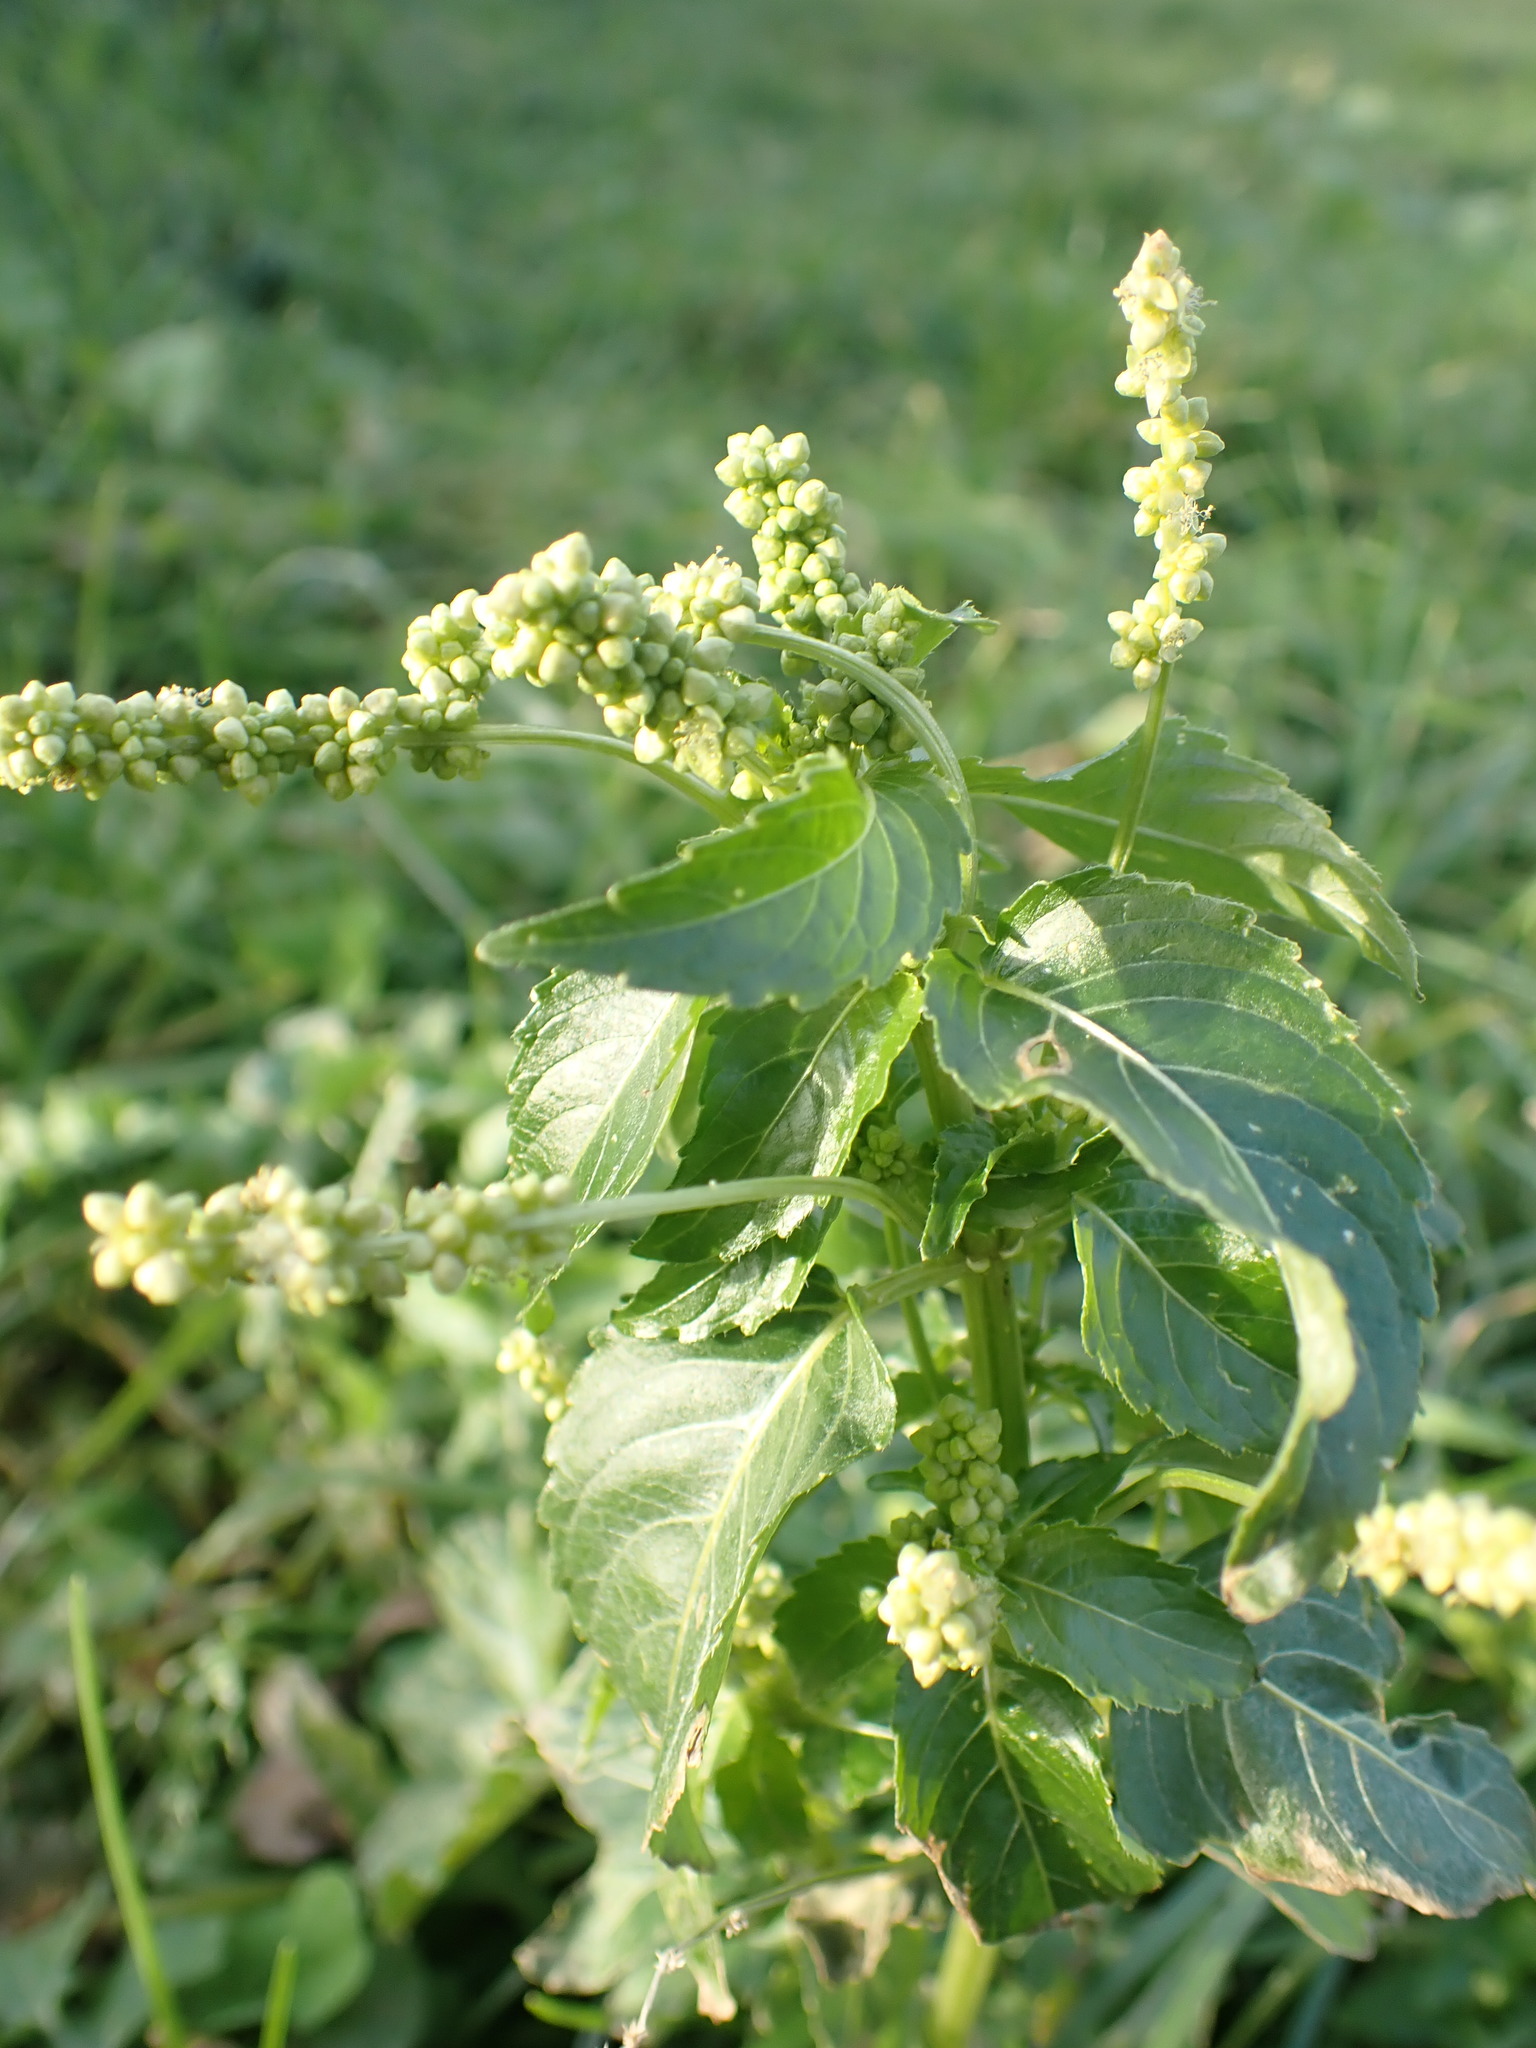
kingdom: Plantae
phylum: Tracheophyta
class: Magnoliopsida
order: Malpighiales
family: Euphorbiaceae
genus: Mercurialis
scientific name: Mercurialis annua
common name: Annual mercury
